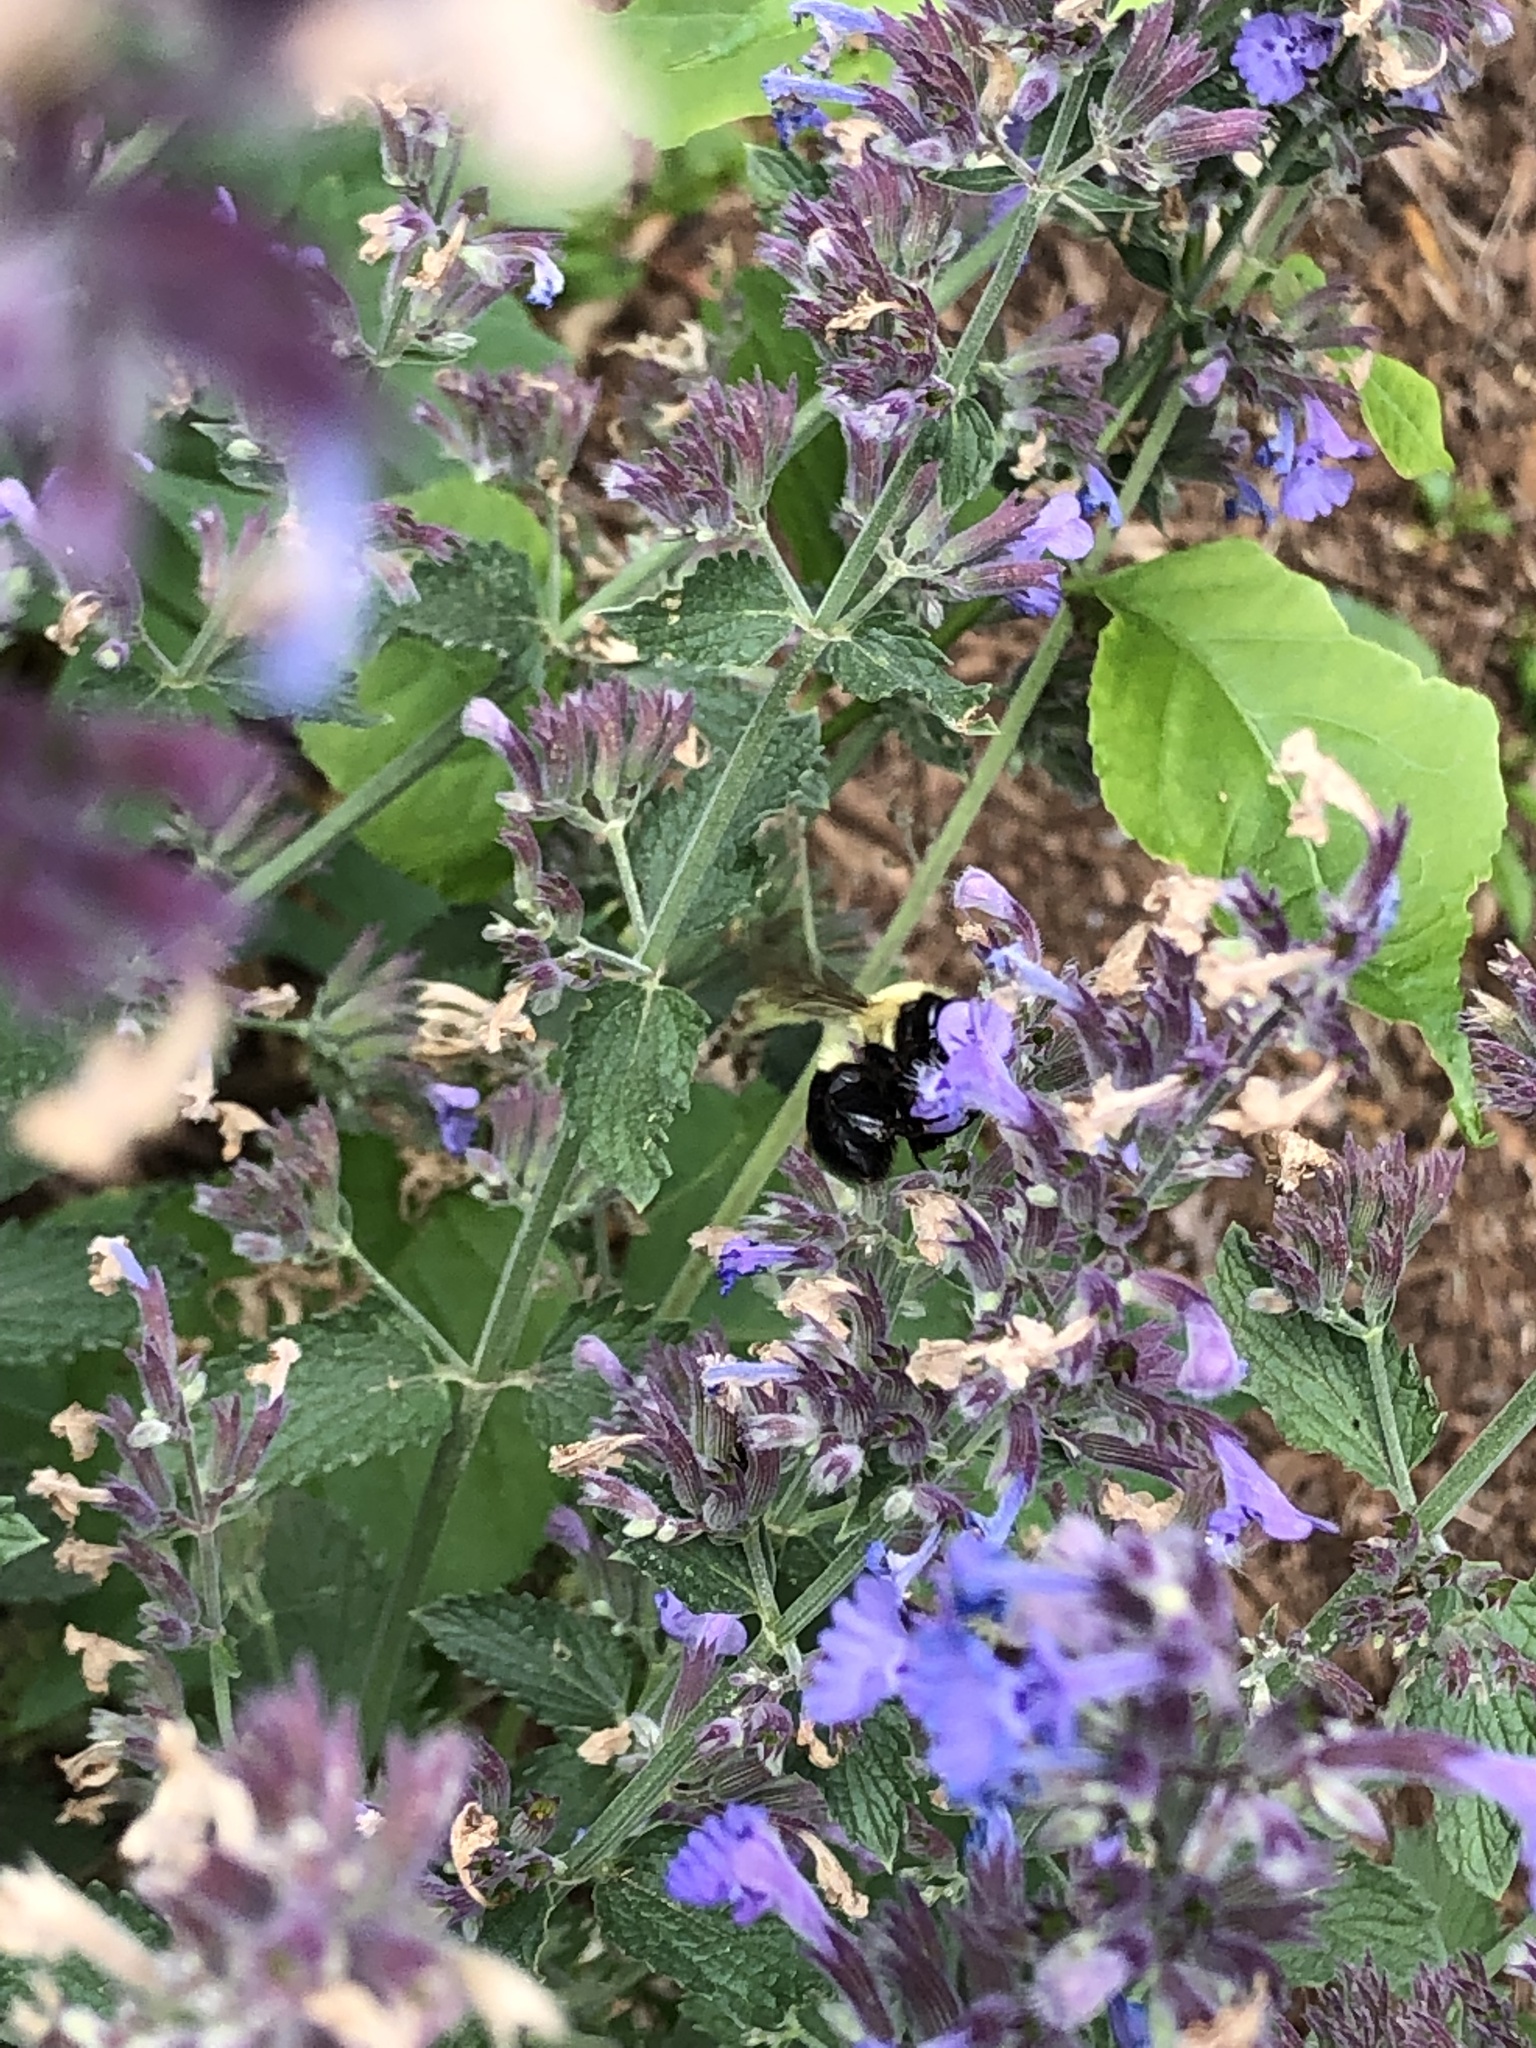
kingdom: Animalia
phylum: Arthropoda
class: Insecta
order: Hymenoptera
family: Apidae
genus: Bombus
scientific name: Bombus bimaculatus
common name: Two-spotted bumble bee
